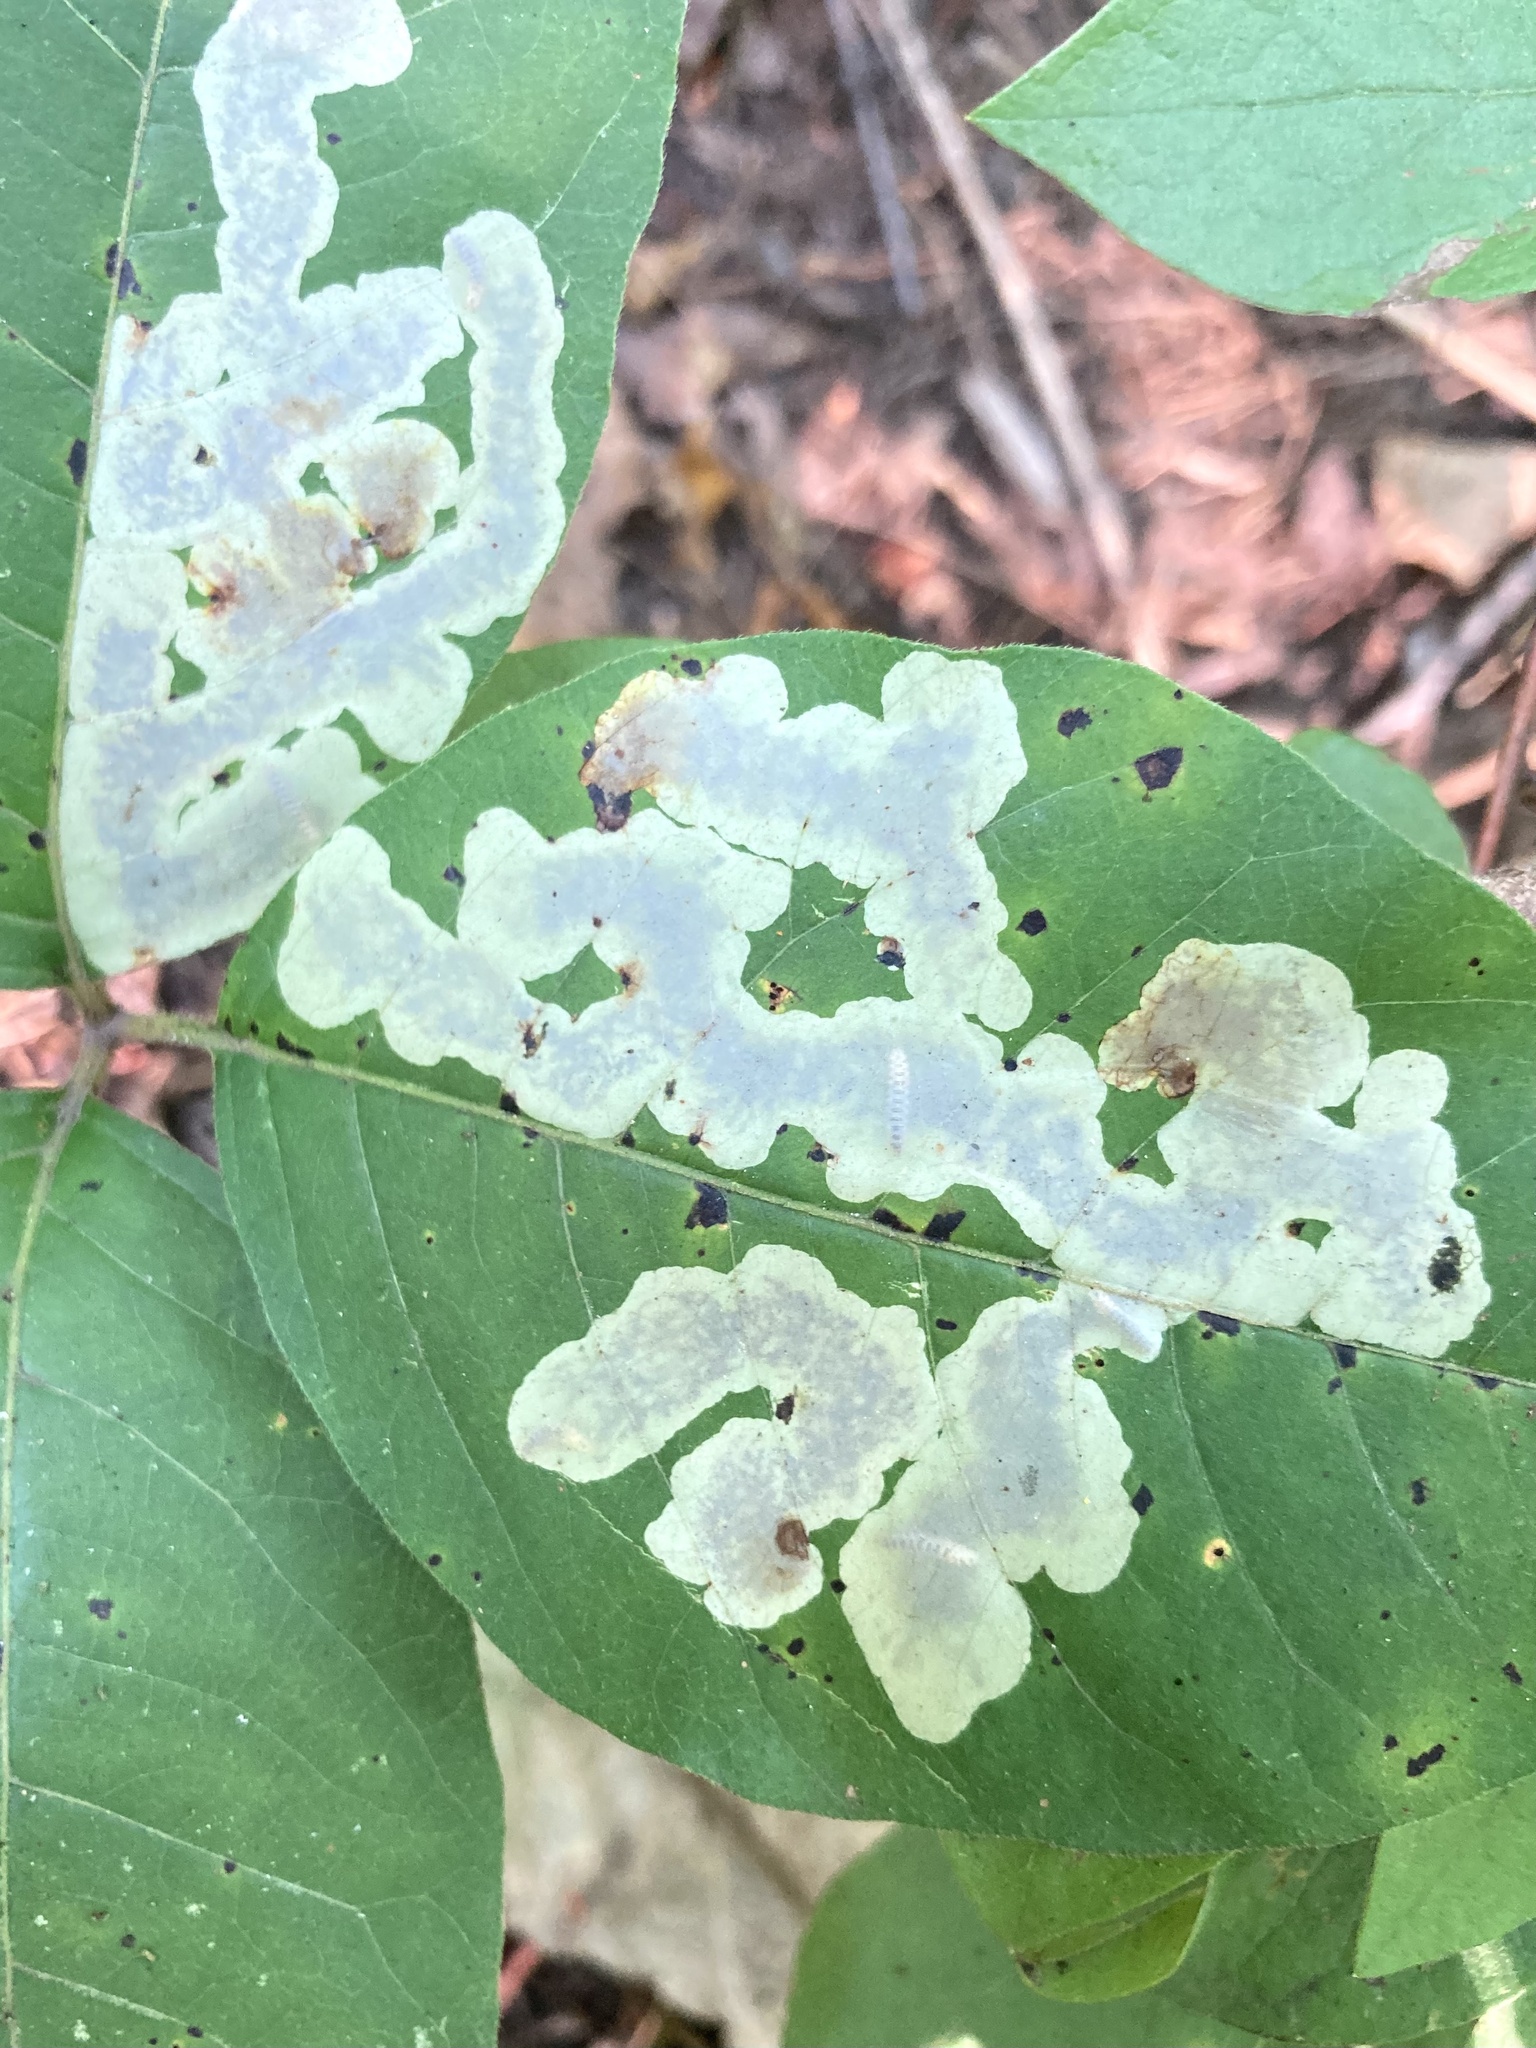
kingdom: Animalia
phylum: Arthropoda
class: Insecta
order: Lepidoptera
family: Gracillariidae
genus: Cameraria
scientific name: Cameraria guttifinitella
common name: Poison ivy leaf-miner moth
